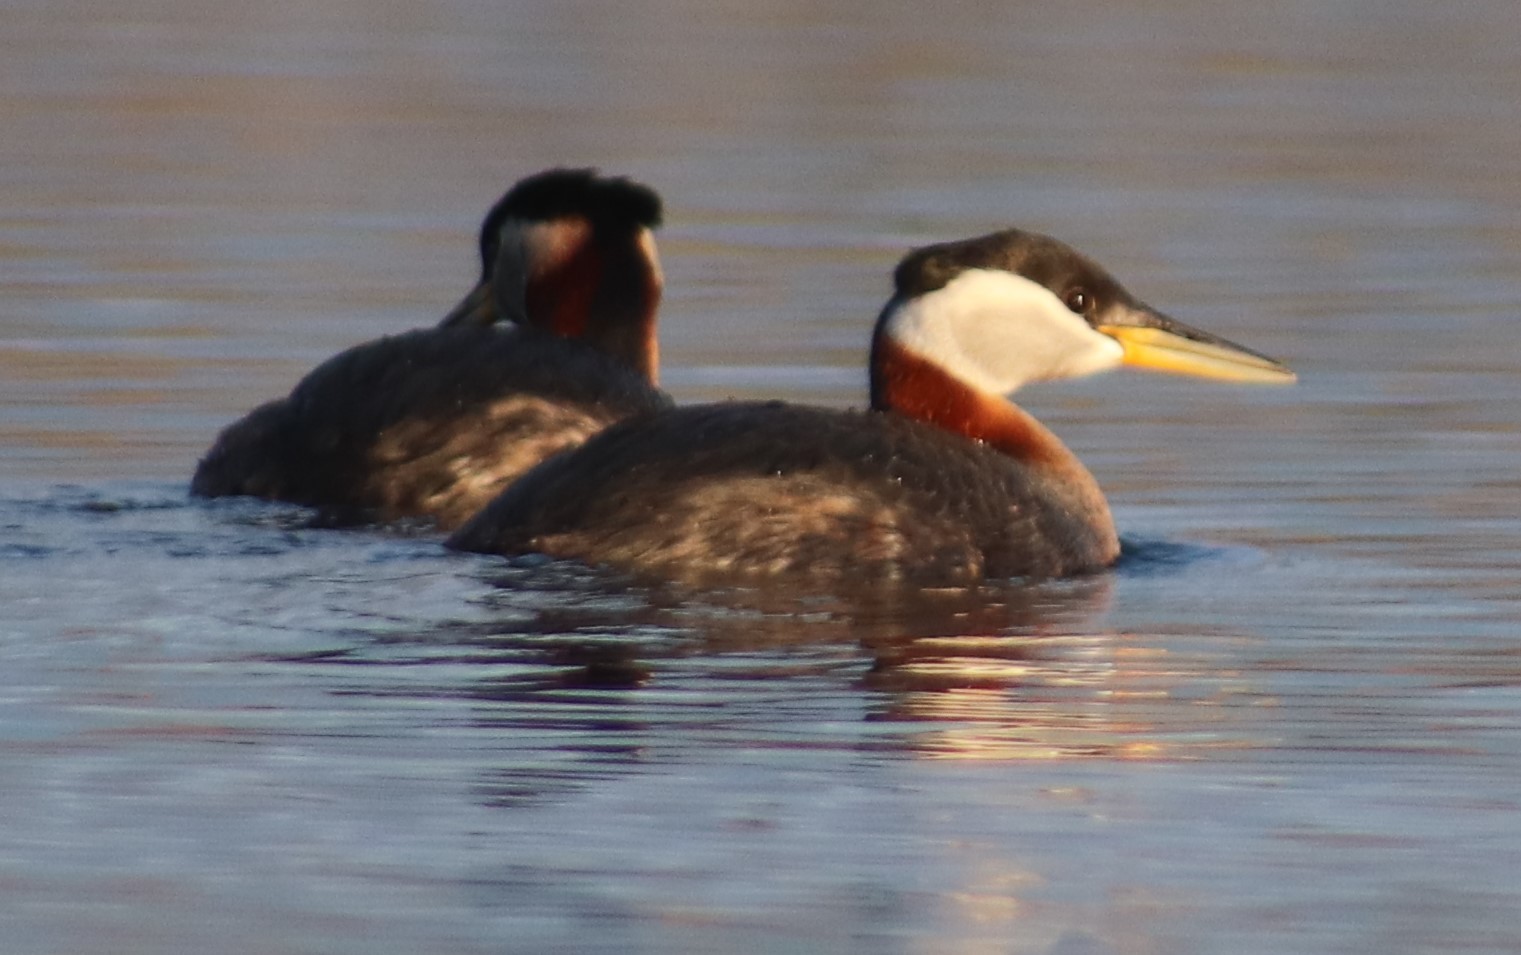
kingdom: Animalia
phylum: Chordata
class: Aves
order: Podicipediformes
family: Podicipedidae
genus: Podiceps
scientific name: Podiceps grisegena
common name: Red-necked grebe
